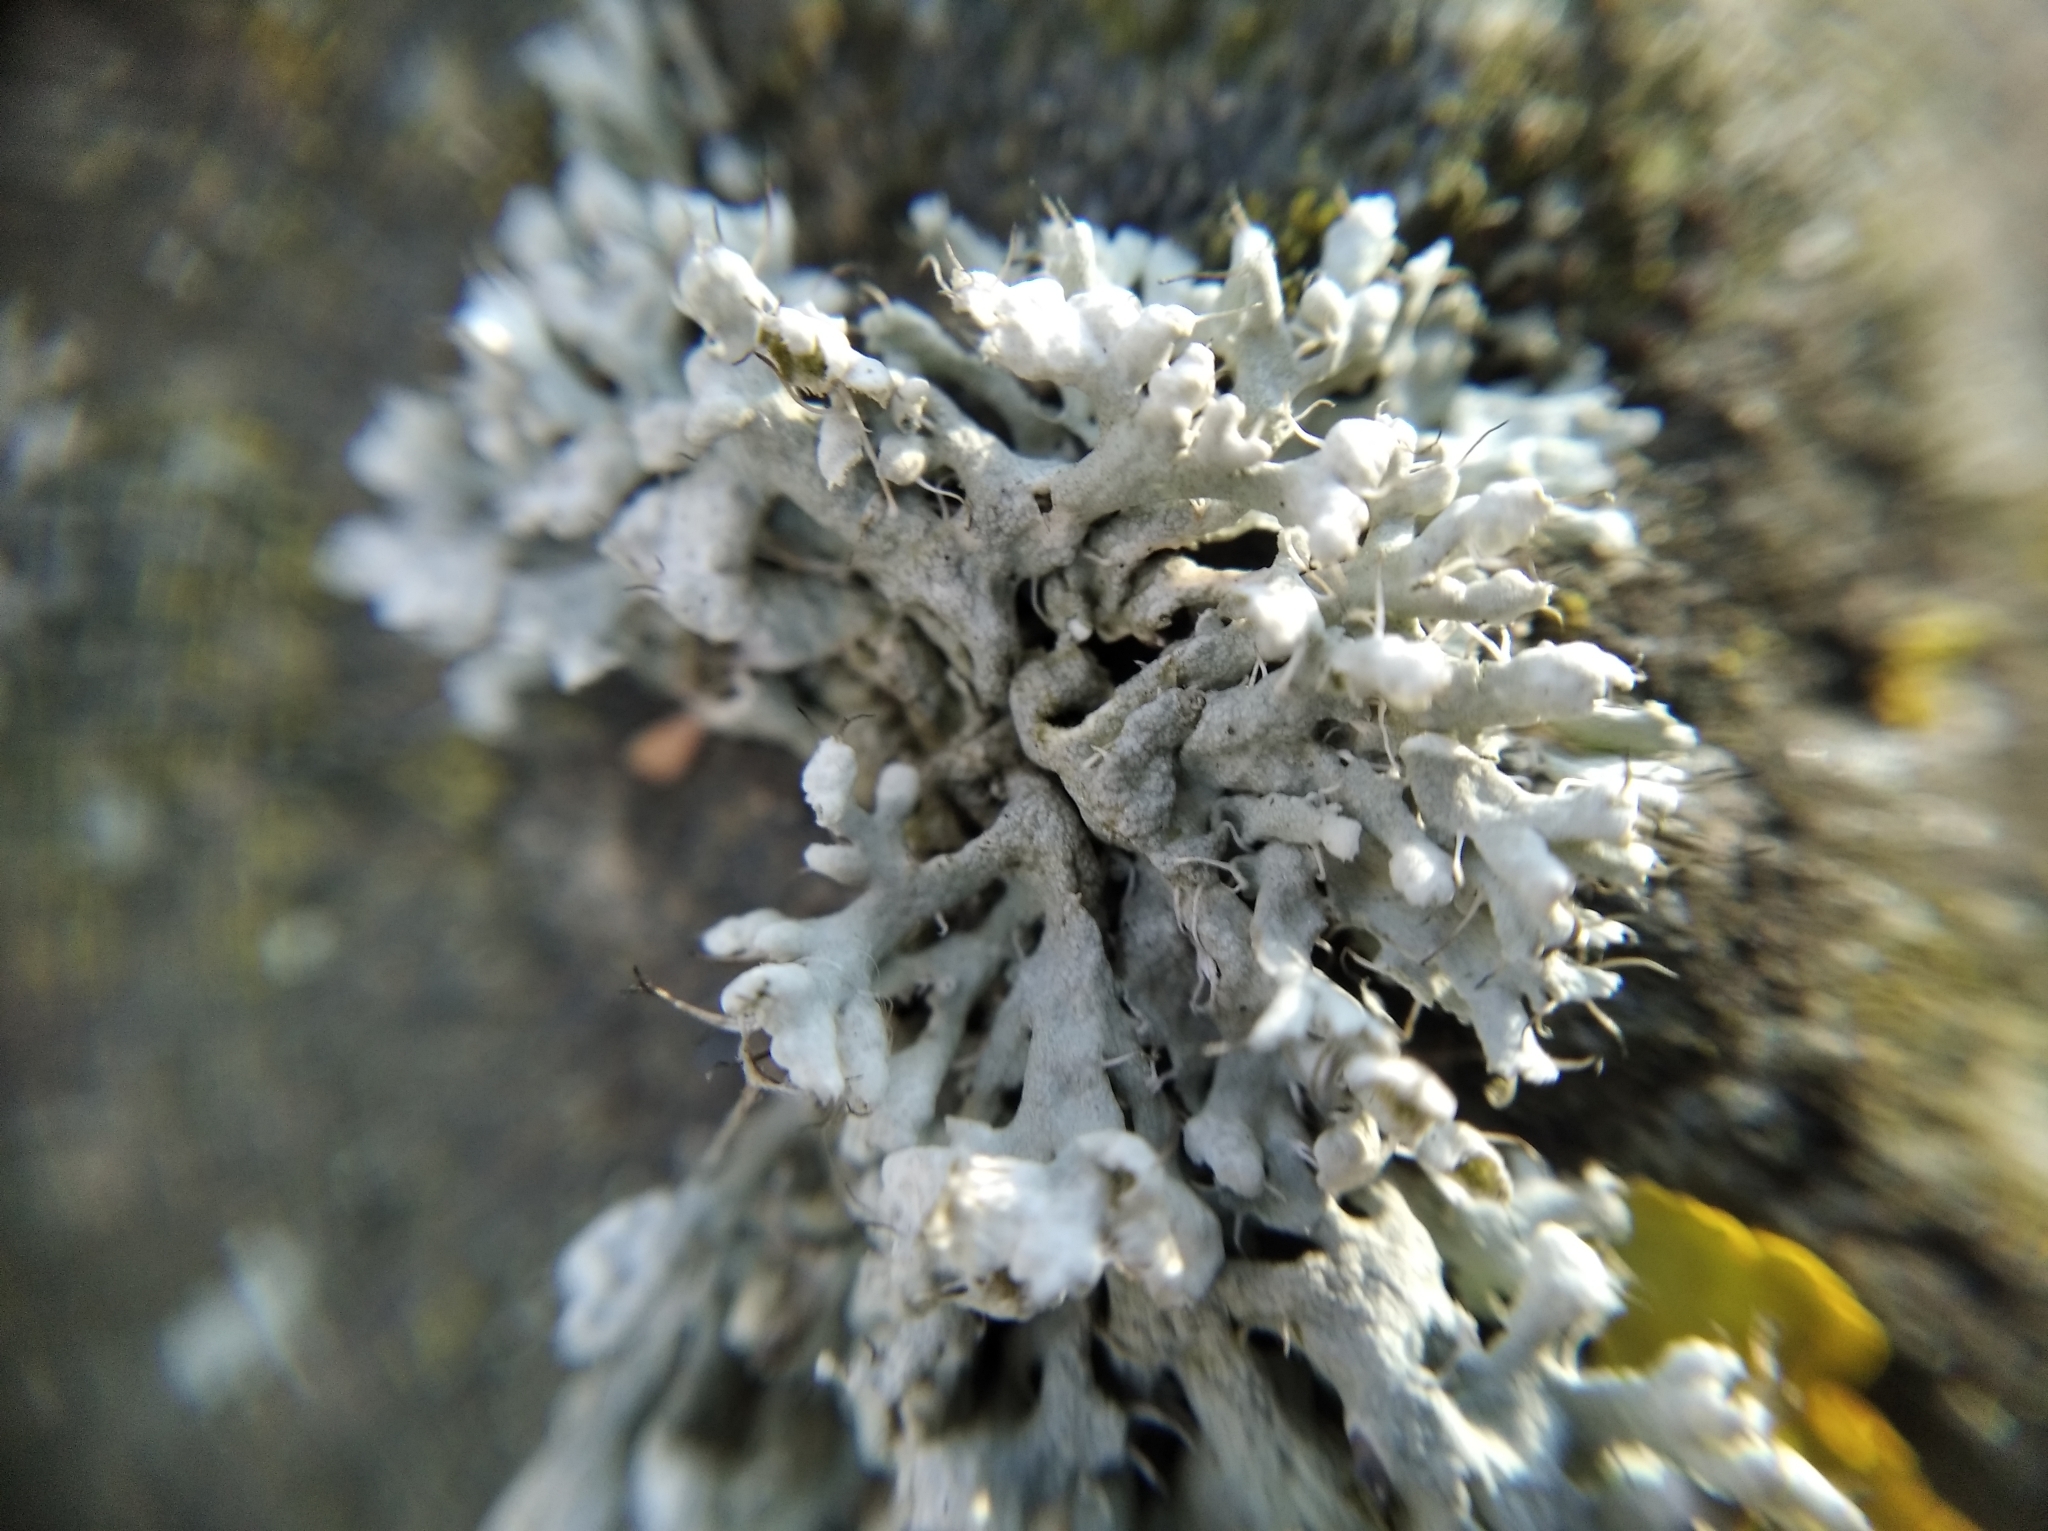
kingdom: Fungi
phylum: Ascomycota
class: Lecanoromycetes
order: Caliciales
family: Physciaceae
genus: Physcia
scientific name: Physcia adscendens
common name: Hooded rosette lichen
